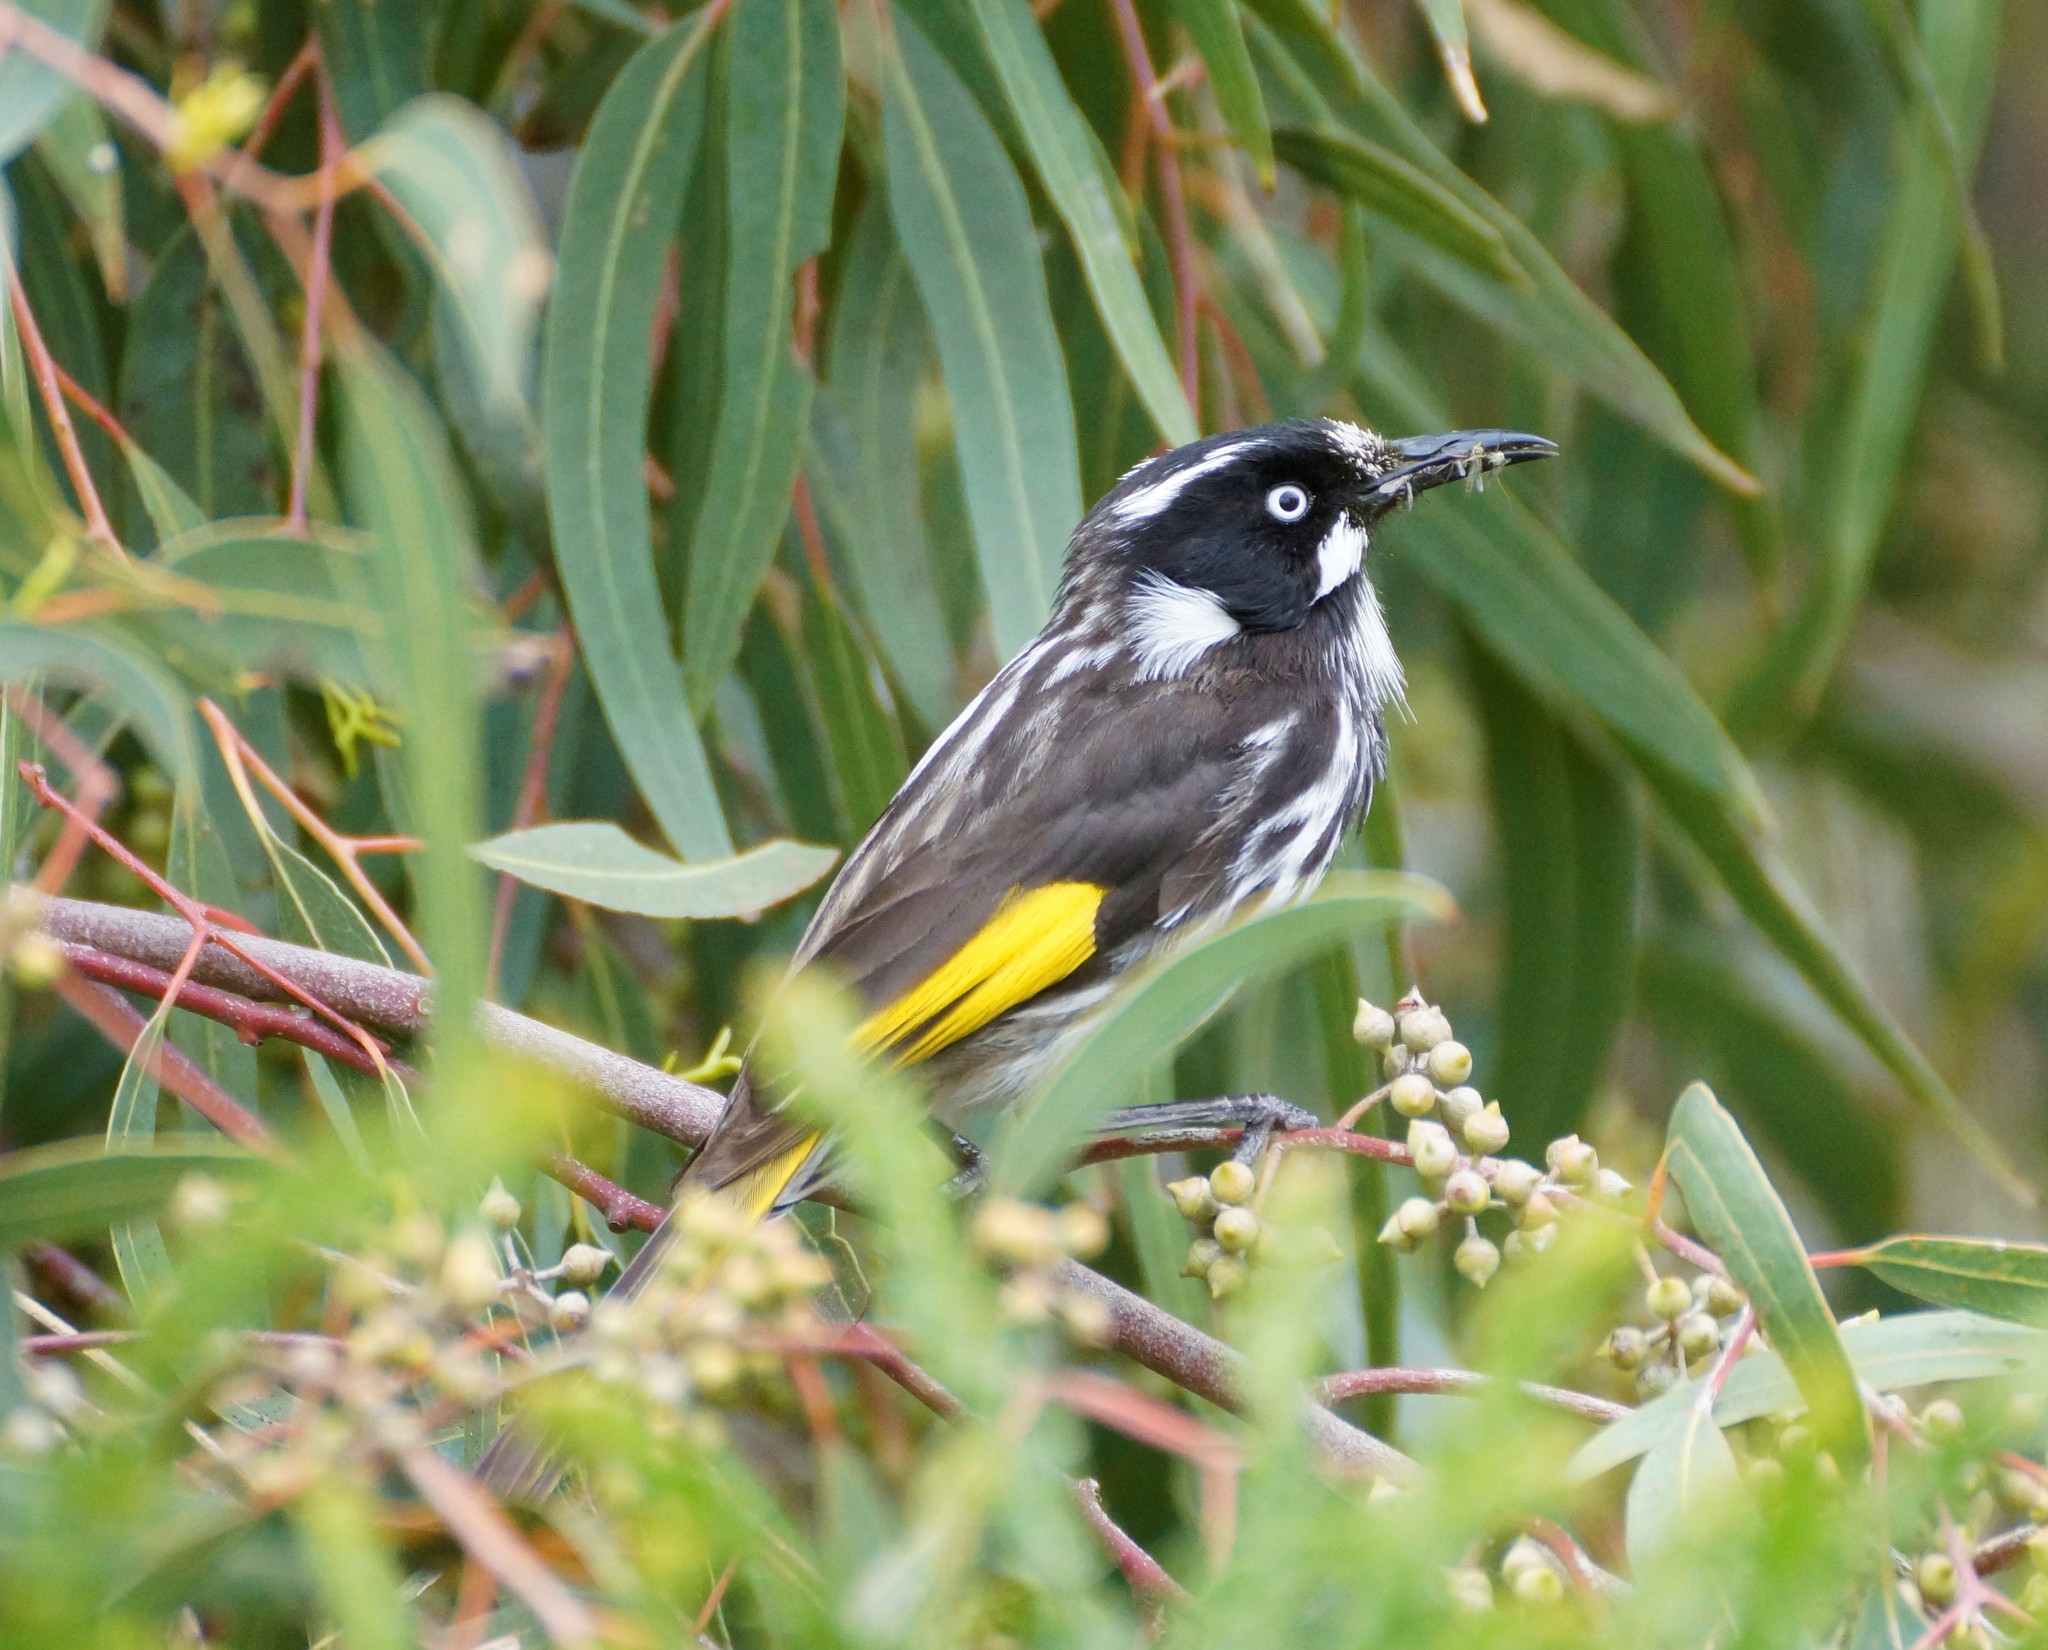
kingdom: Animalia
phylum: Chordata
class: Aves
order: Passeriformes
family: Meliphagidae
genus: Phylidonyris
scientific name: Phylidonyris novaehollandiae
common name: New holland honeyeater
